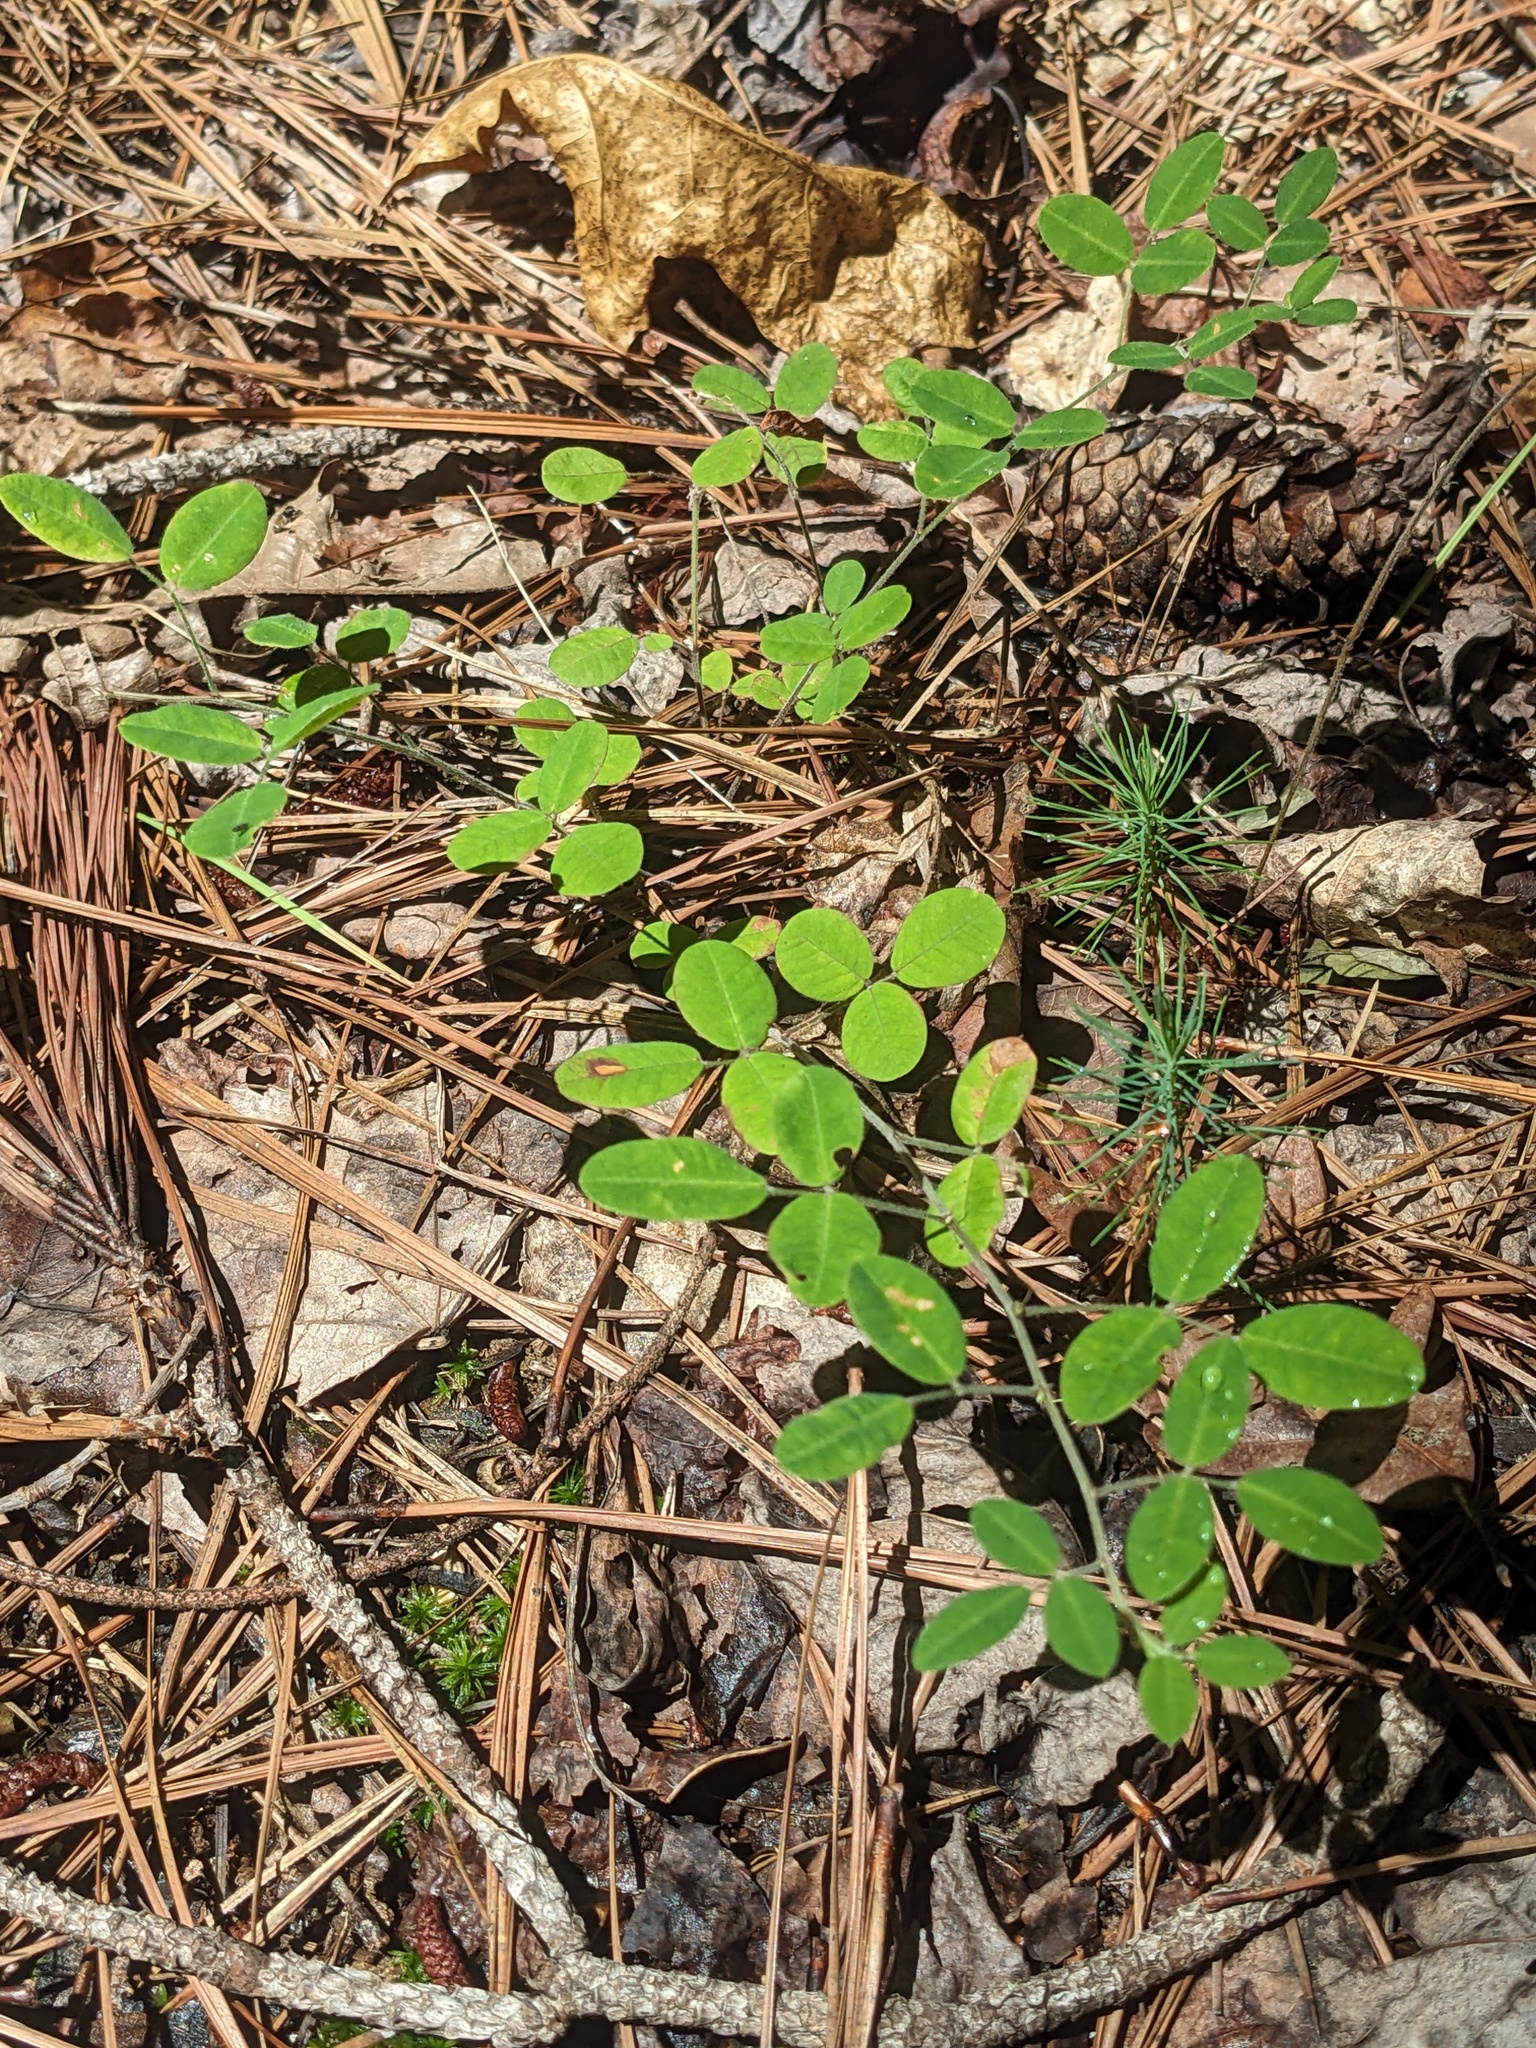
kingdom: Plantae
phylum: Tracheophyta
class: Magnoliopsida
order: Fabales
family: Fabaceae
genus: Lespedeza
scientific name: Lespedeza procumbens
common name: Downy trailing bush-clover
